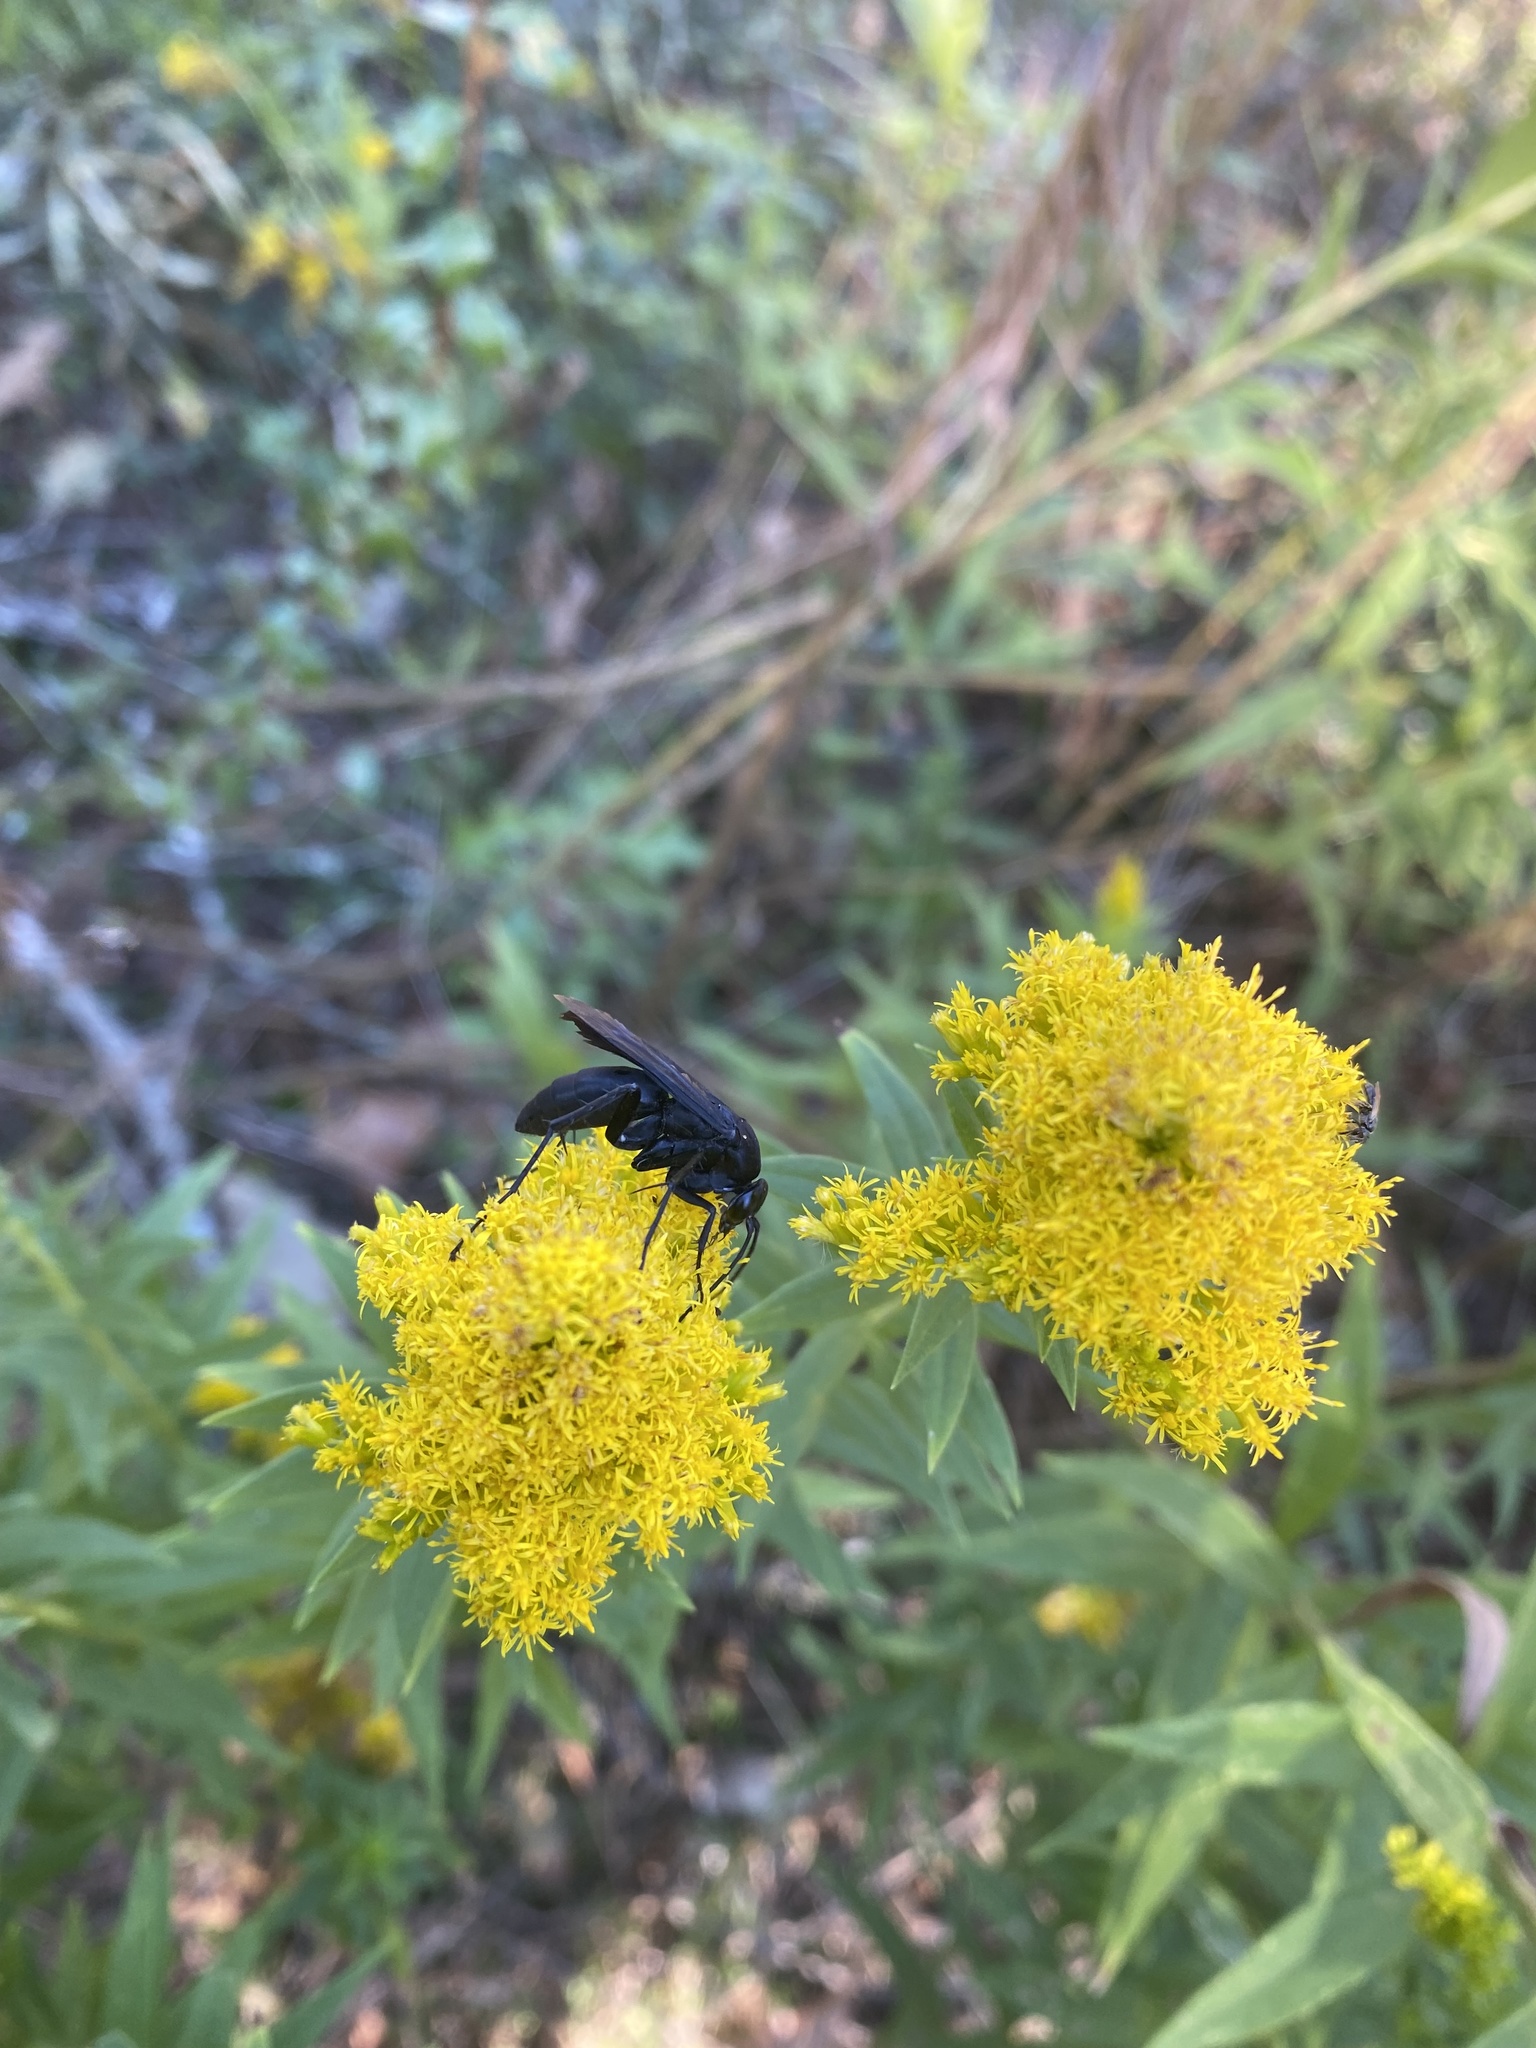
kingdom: Animalia
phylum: Arthropoda
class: Insecta
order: Hymenoptera
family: Pompilidae
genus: Paracyphononyx
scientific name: Paracyphononyx funereus
